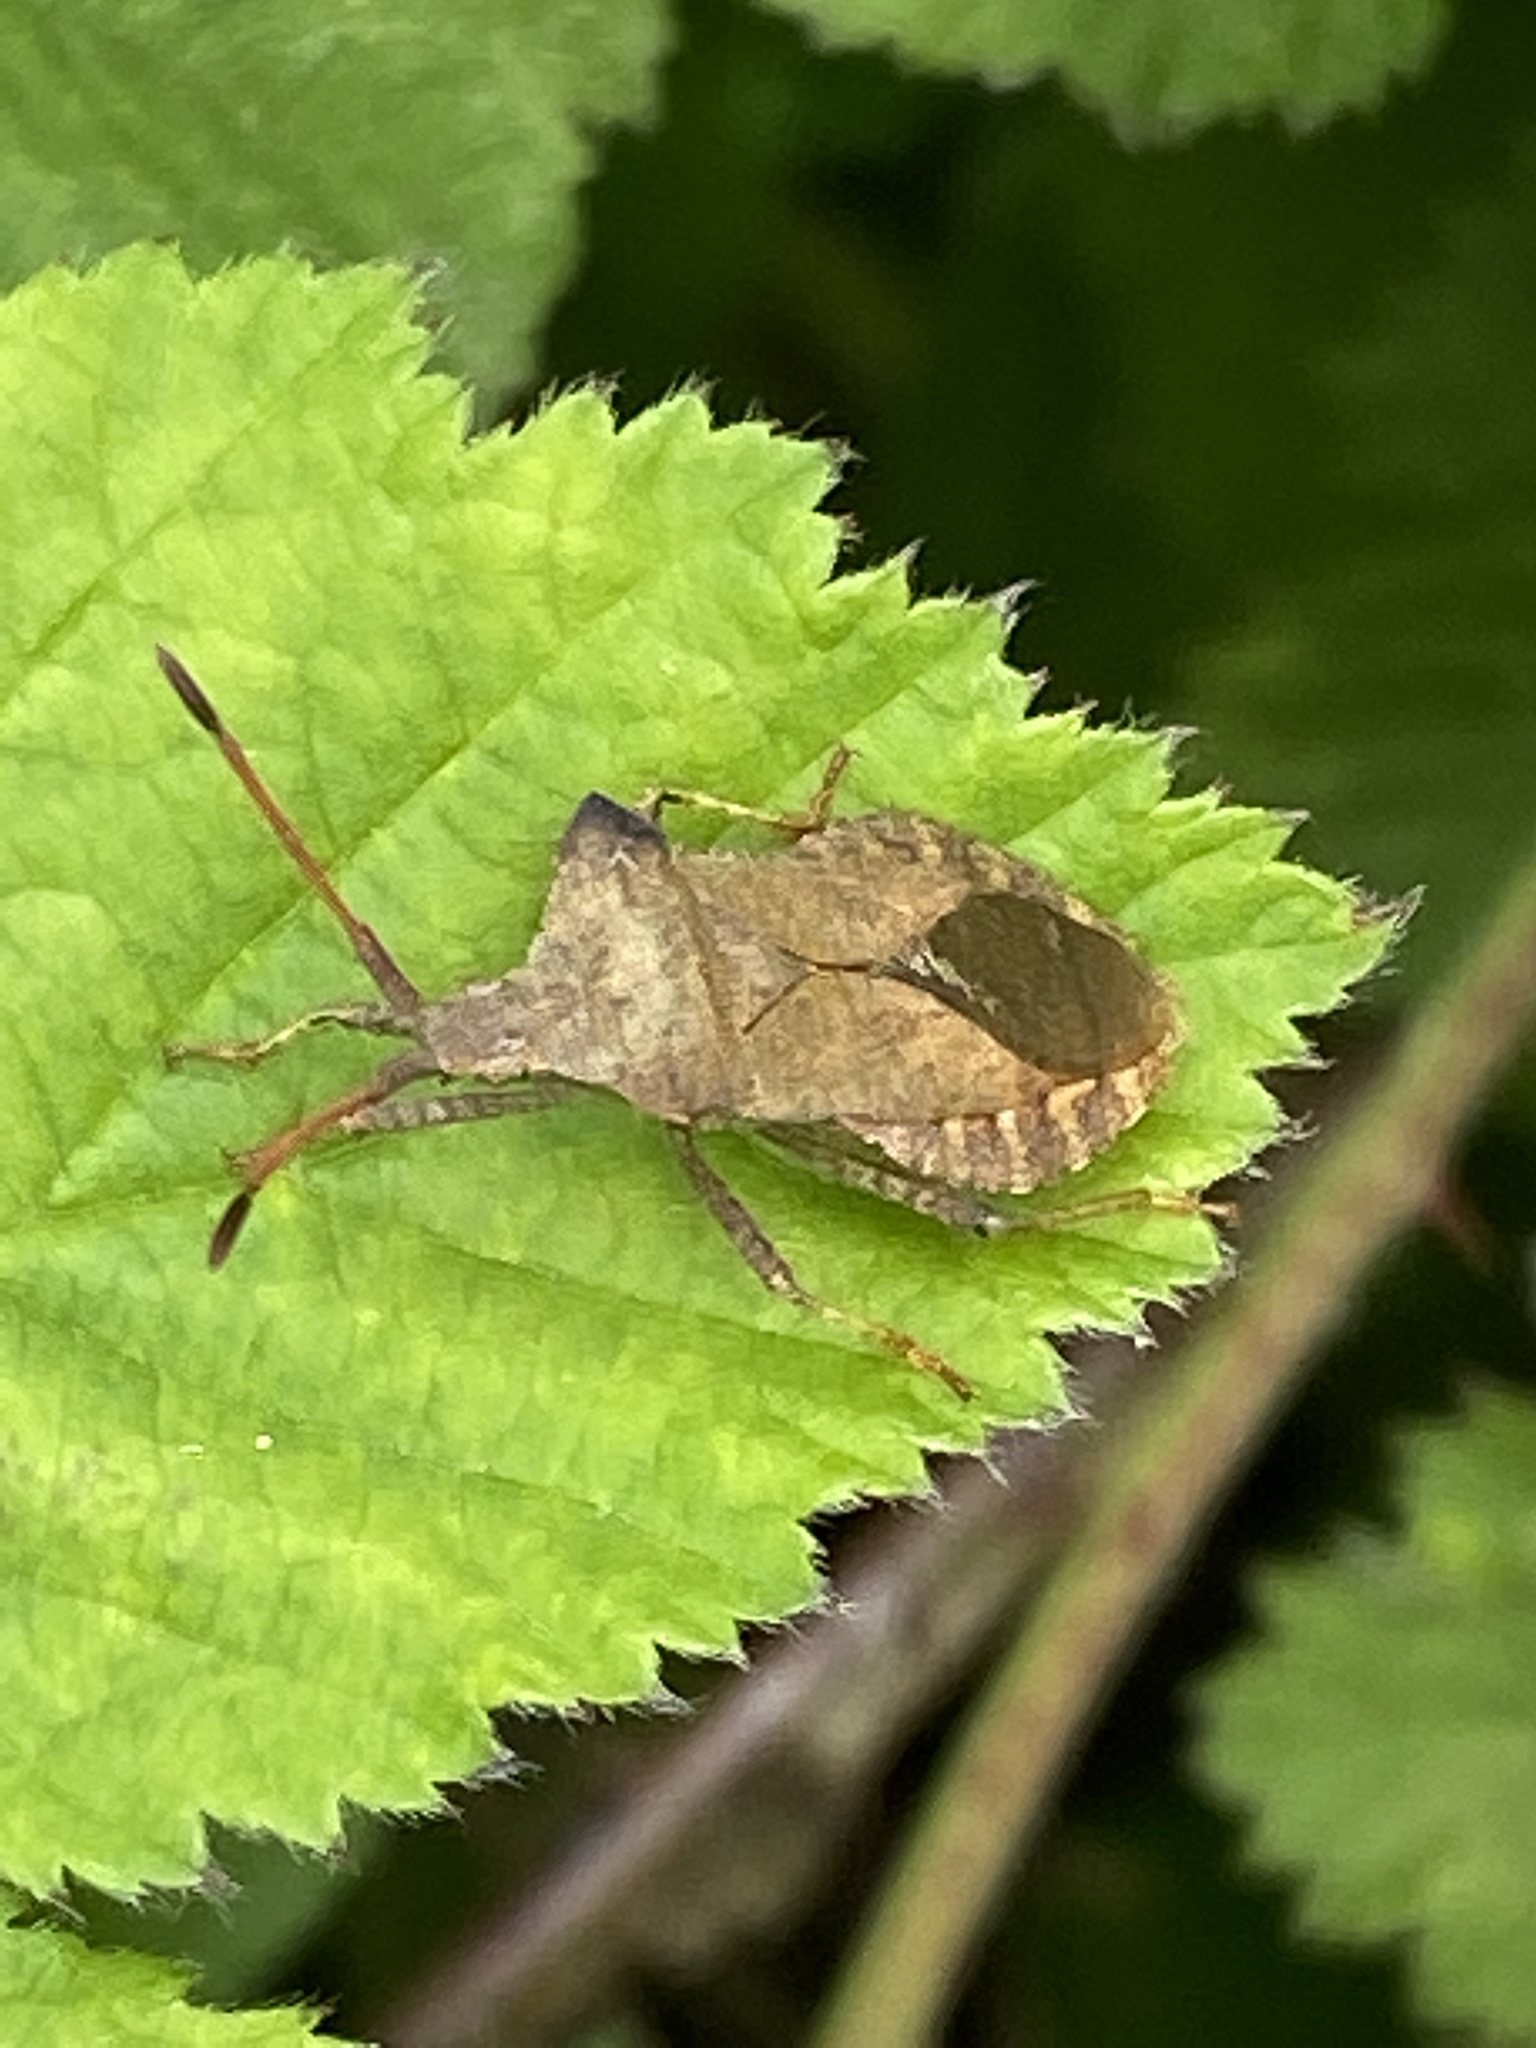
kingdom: Animalia
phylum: Arthropoda
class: Insecta
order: Hemiptera
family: Coreidae
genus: Coreus
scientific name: Coreus marginatus
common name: Dock bug
